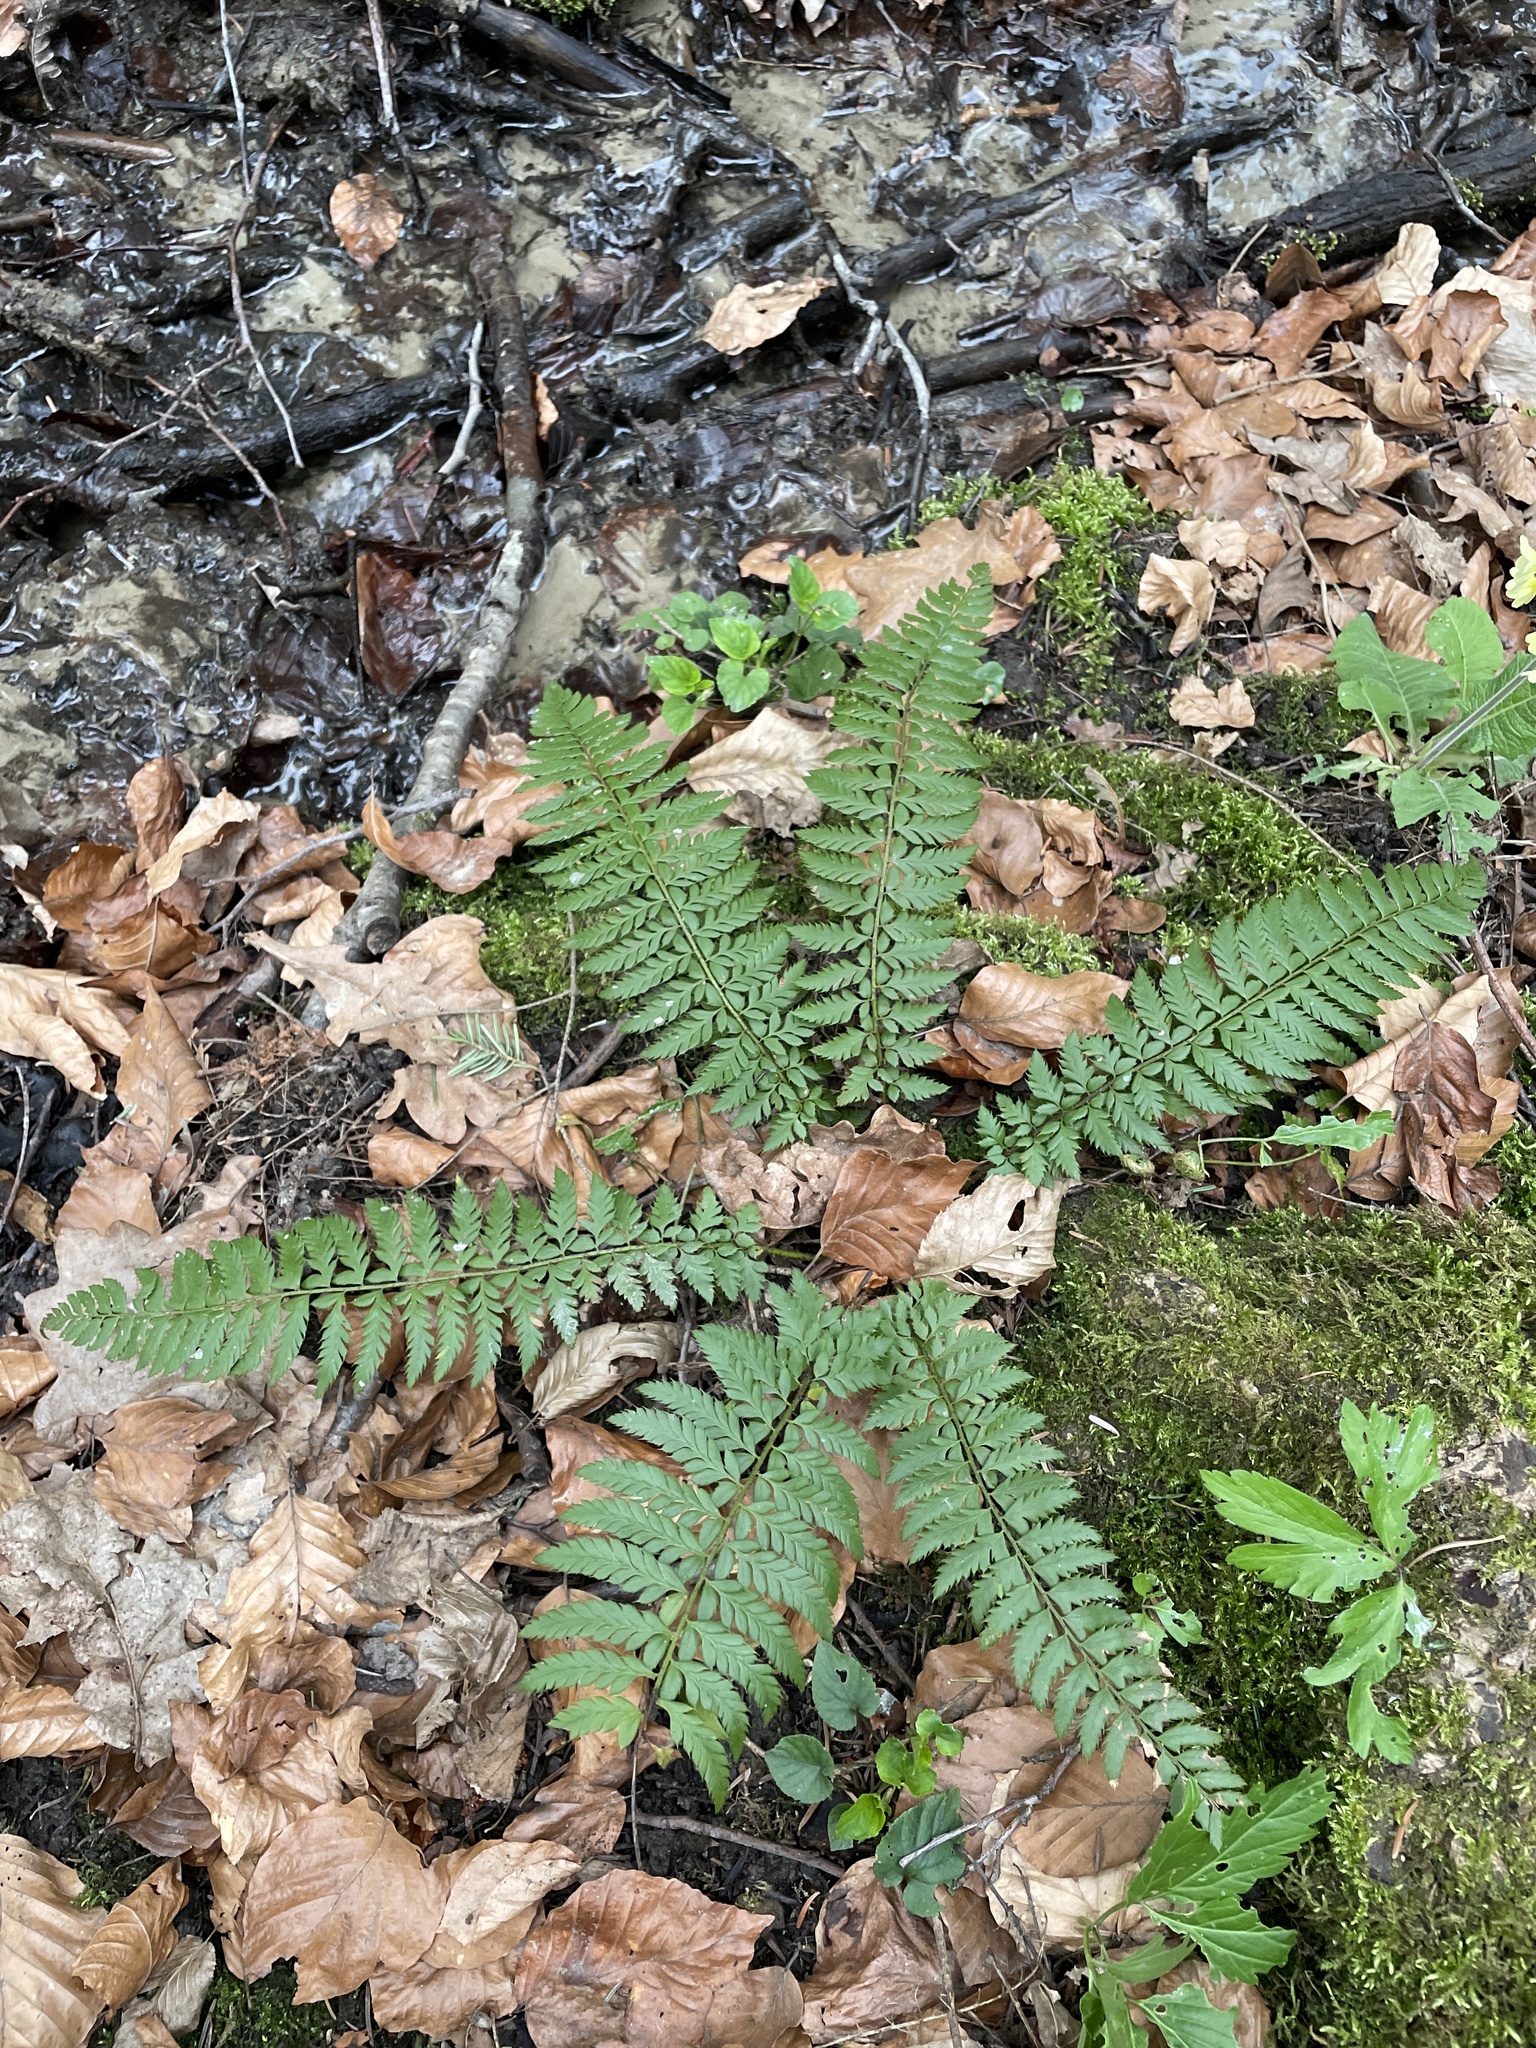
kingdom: Plantae
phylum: Tracheophyta
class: Polypodiopsida
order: Polypodiales
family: Dryopteridaceae
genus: Polystichum
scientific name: Polystichum aculeatum
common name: Hard shield-fern
